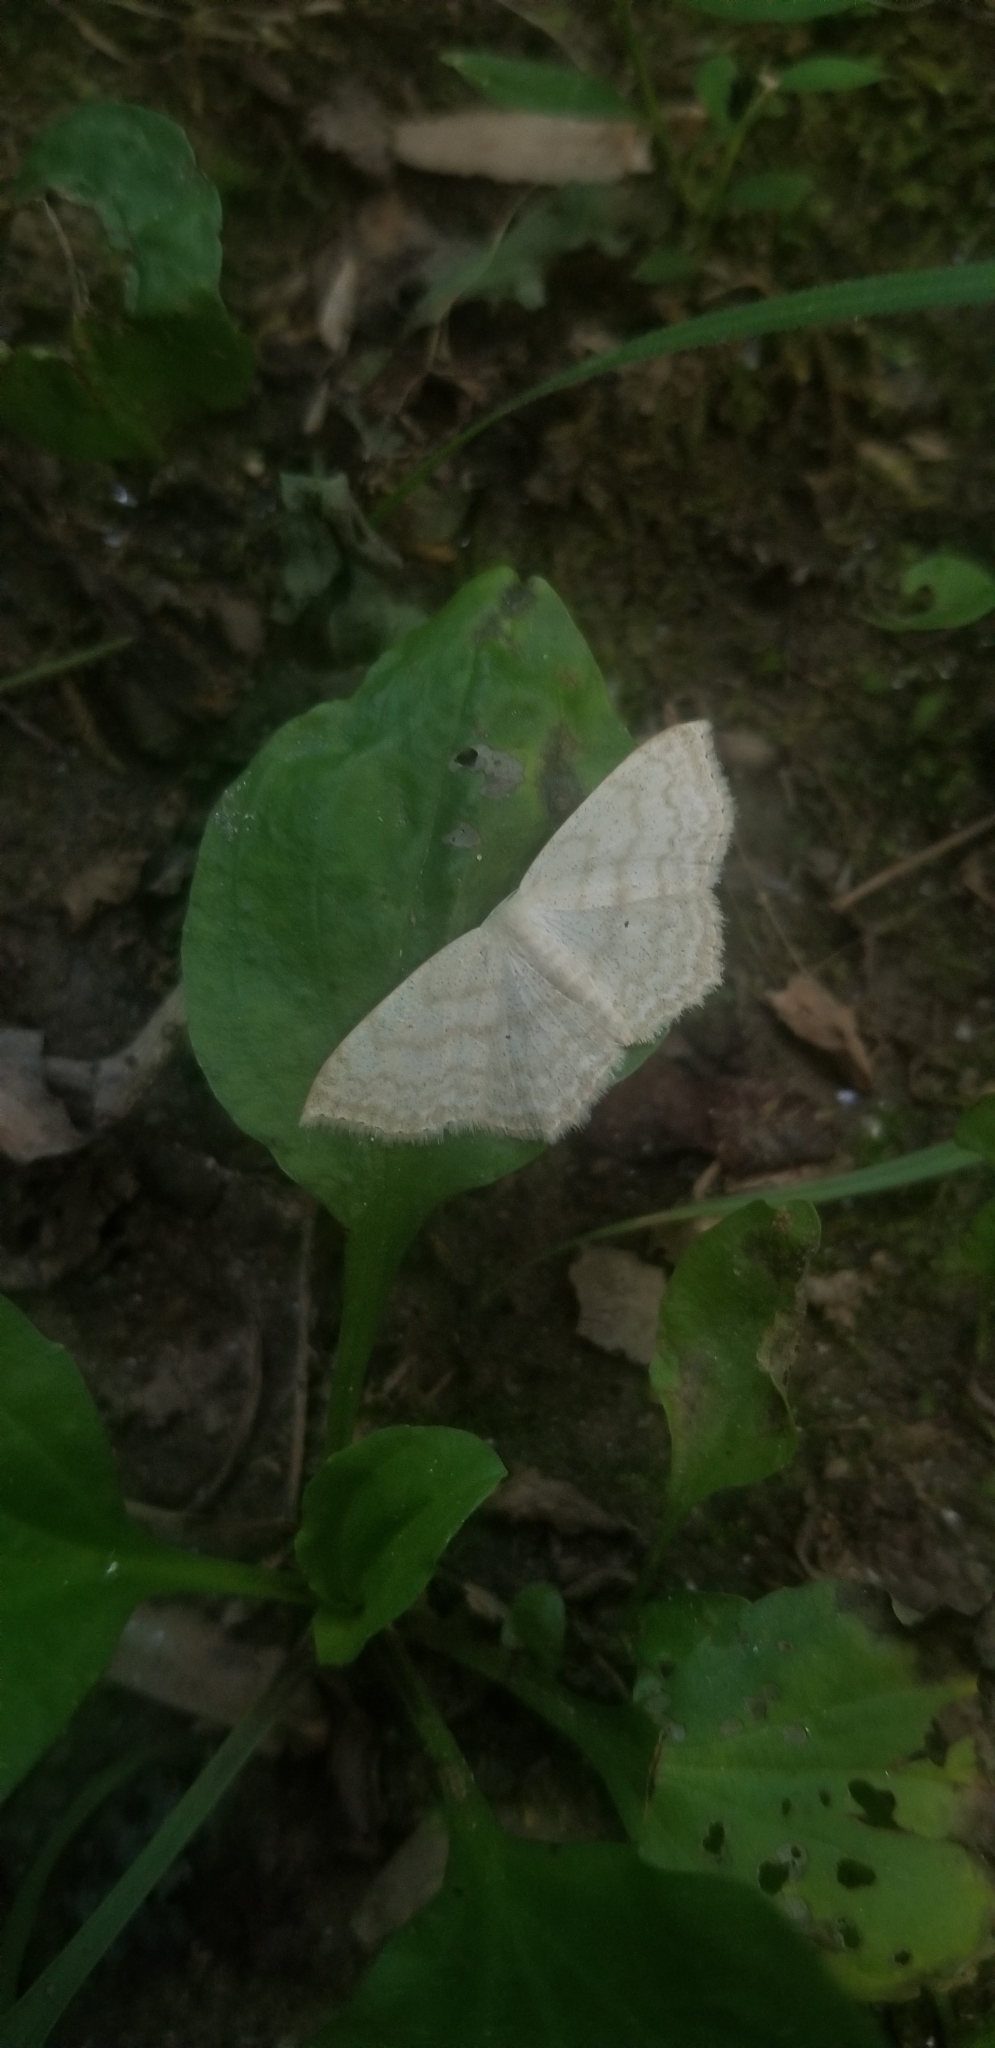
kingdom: Animalia
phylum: Arthropoda
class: Insecta
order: Lepidoptera
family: Geometridae
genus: Scopula
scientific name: Scopula limboundata
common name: Large lace border
